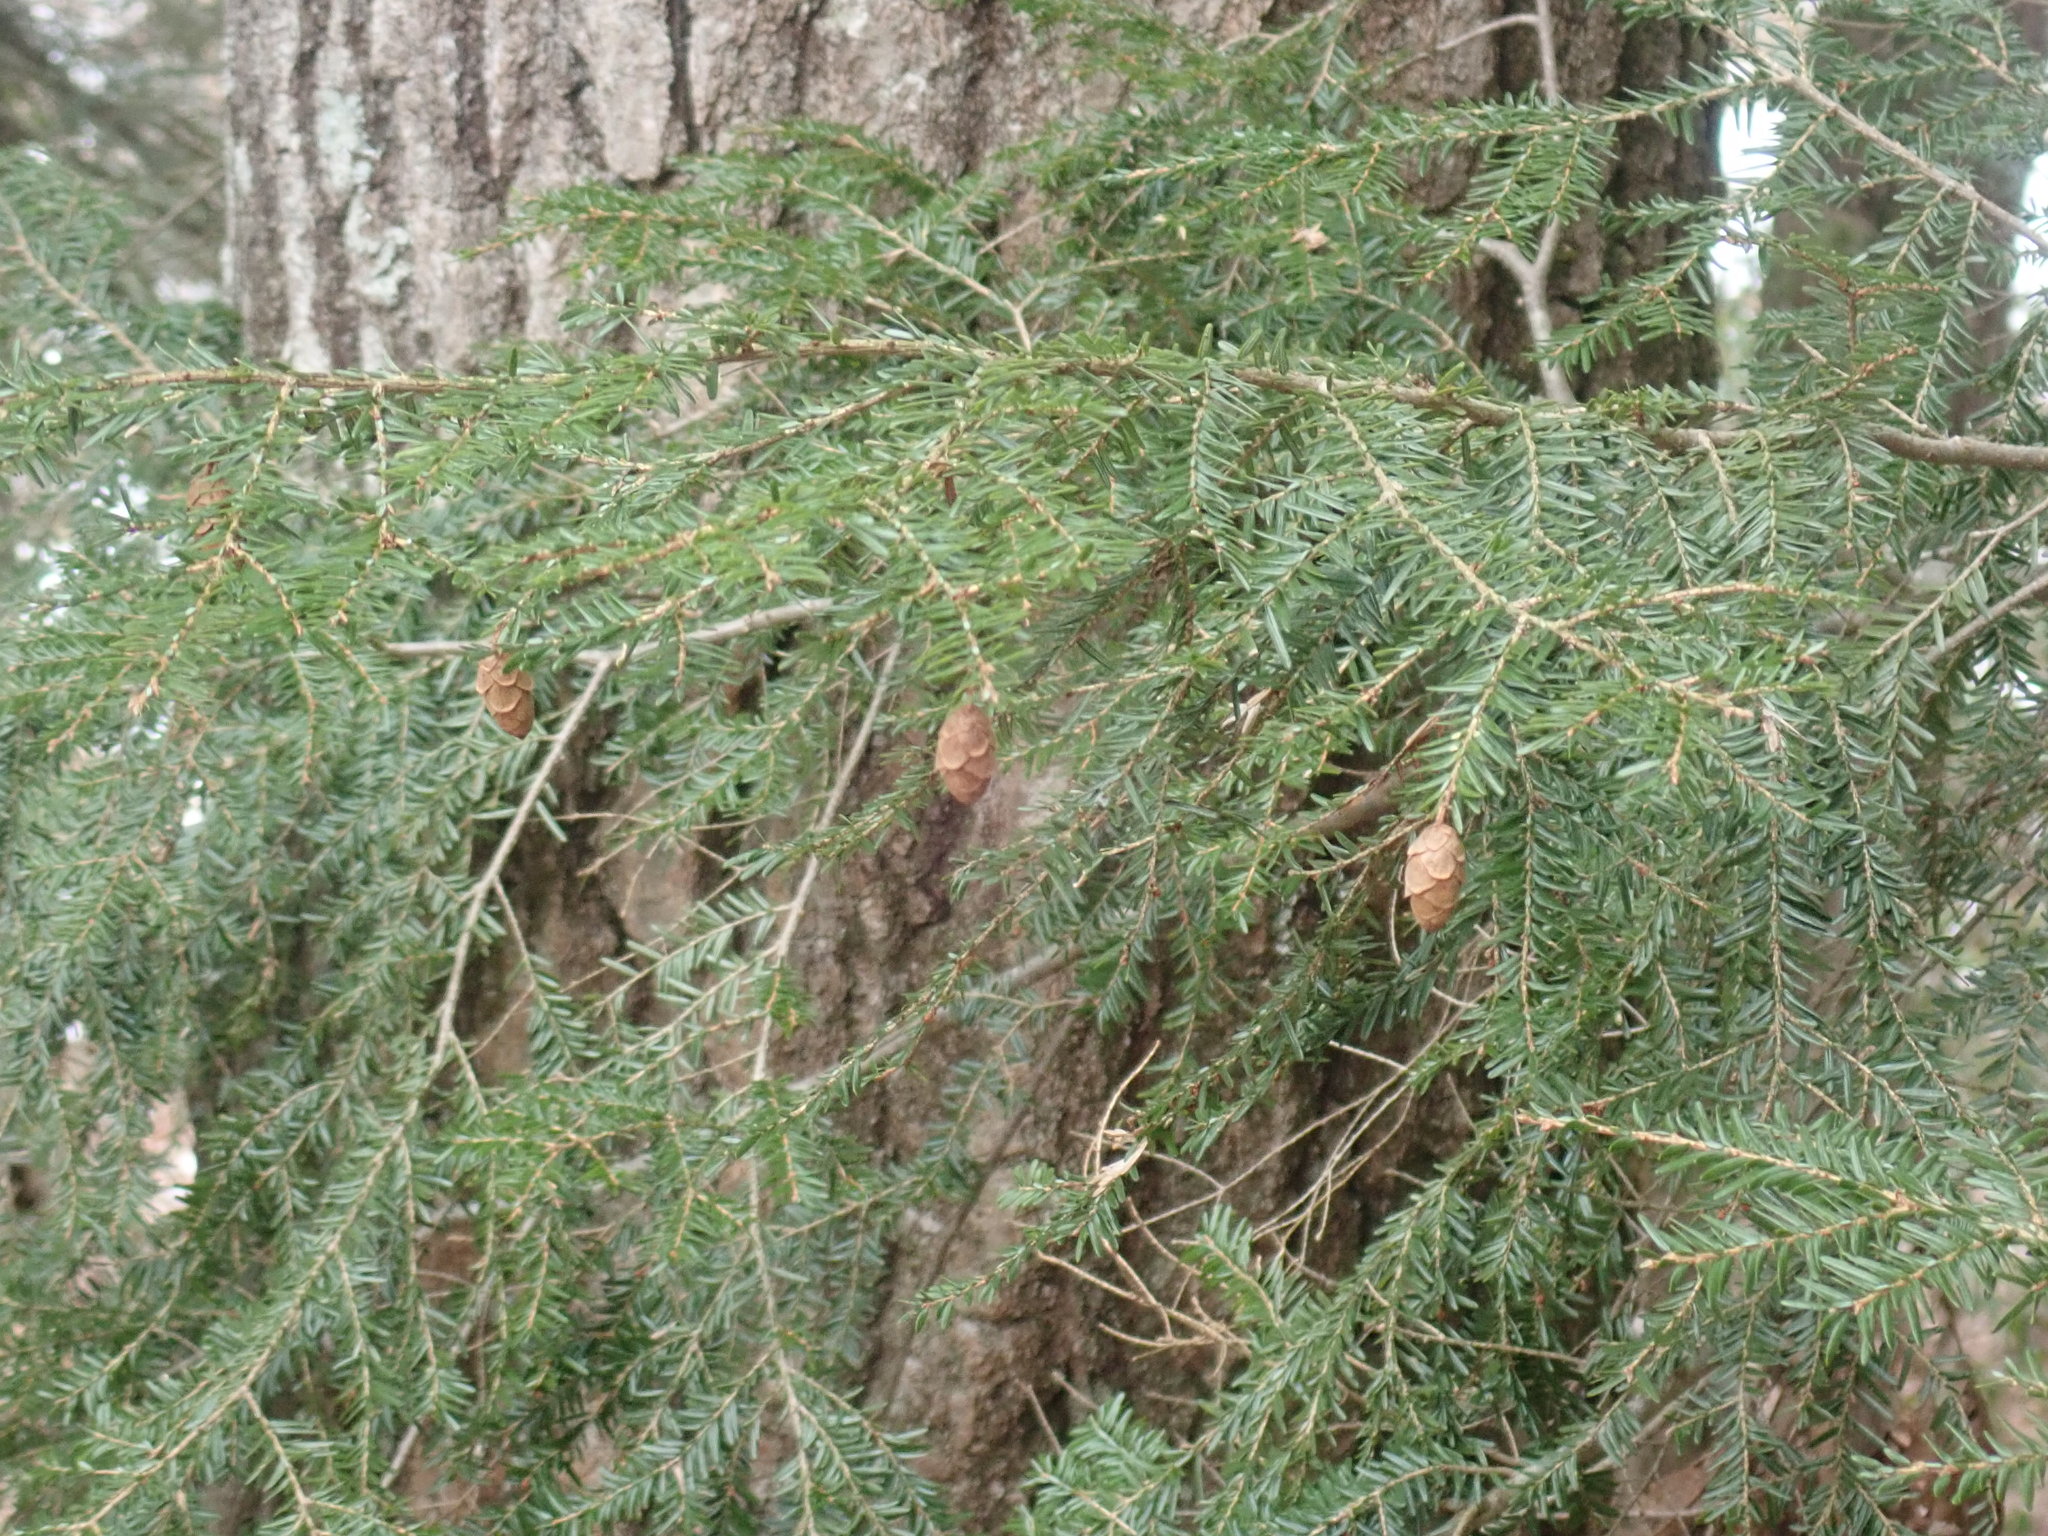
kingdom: Plantae
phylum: Tracheophyta
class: Pinopsida
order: Pinales
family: Pinaceae
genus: Tsuga
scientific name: Tsuga canadensis
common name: Eastern hemlock
